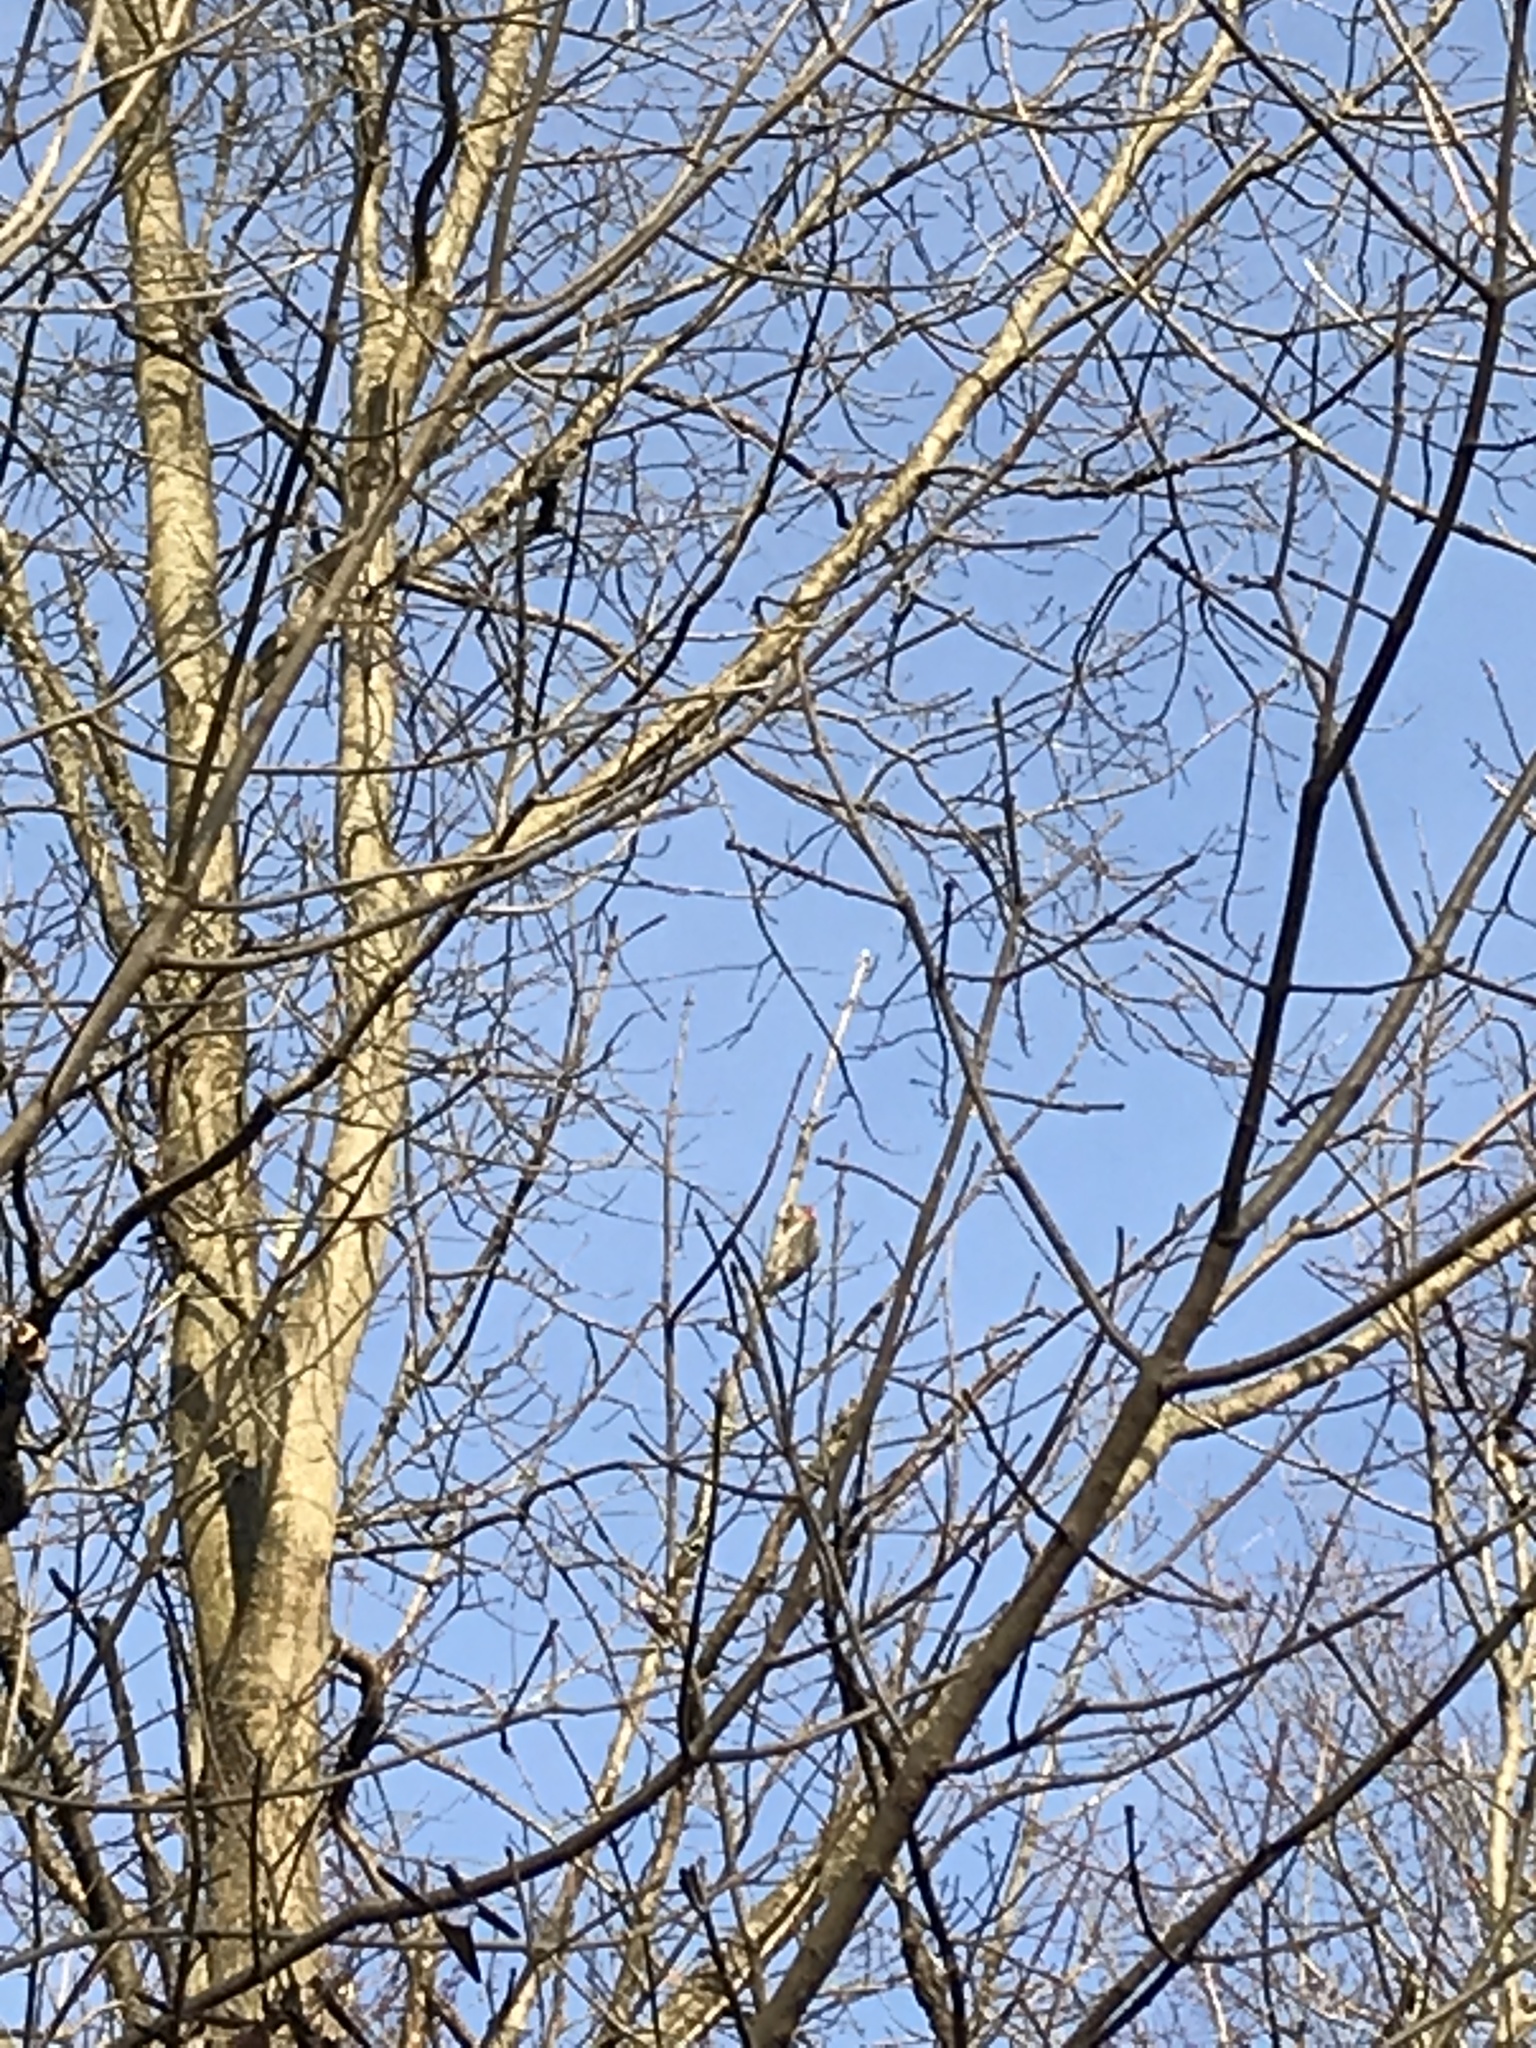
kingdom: Animalia
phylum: Chordata
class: Aves
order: Piciformes
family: Picidae
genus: Melanerpes
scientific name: Melanerpes carolinus
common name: Red-bellied woodpecker
